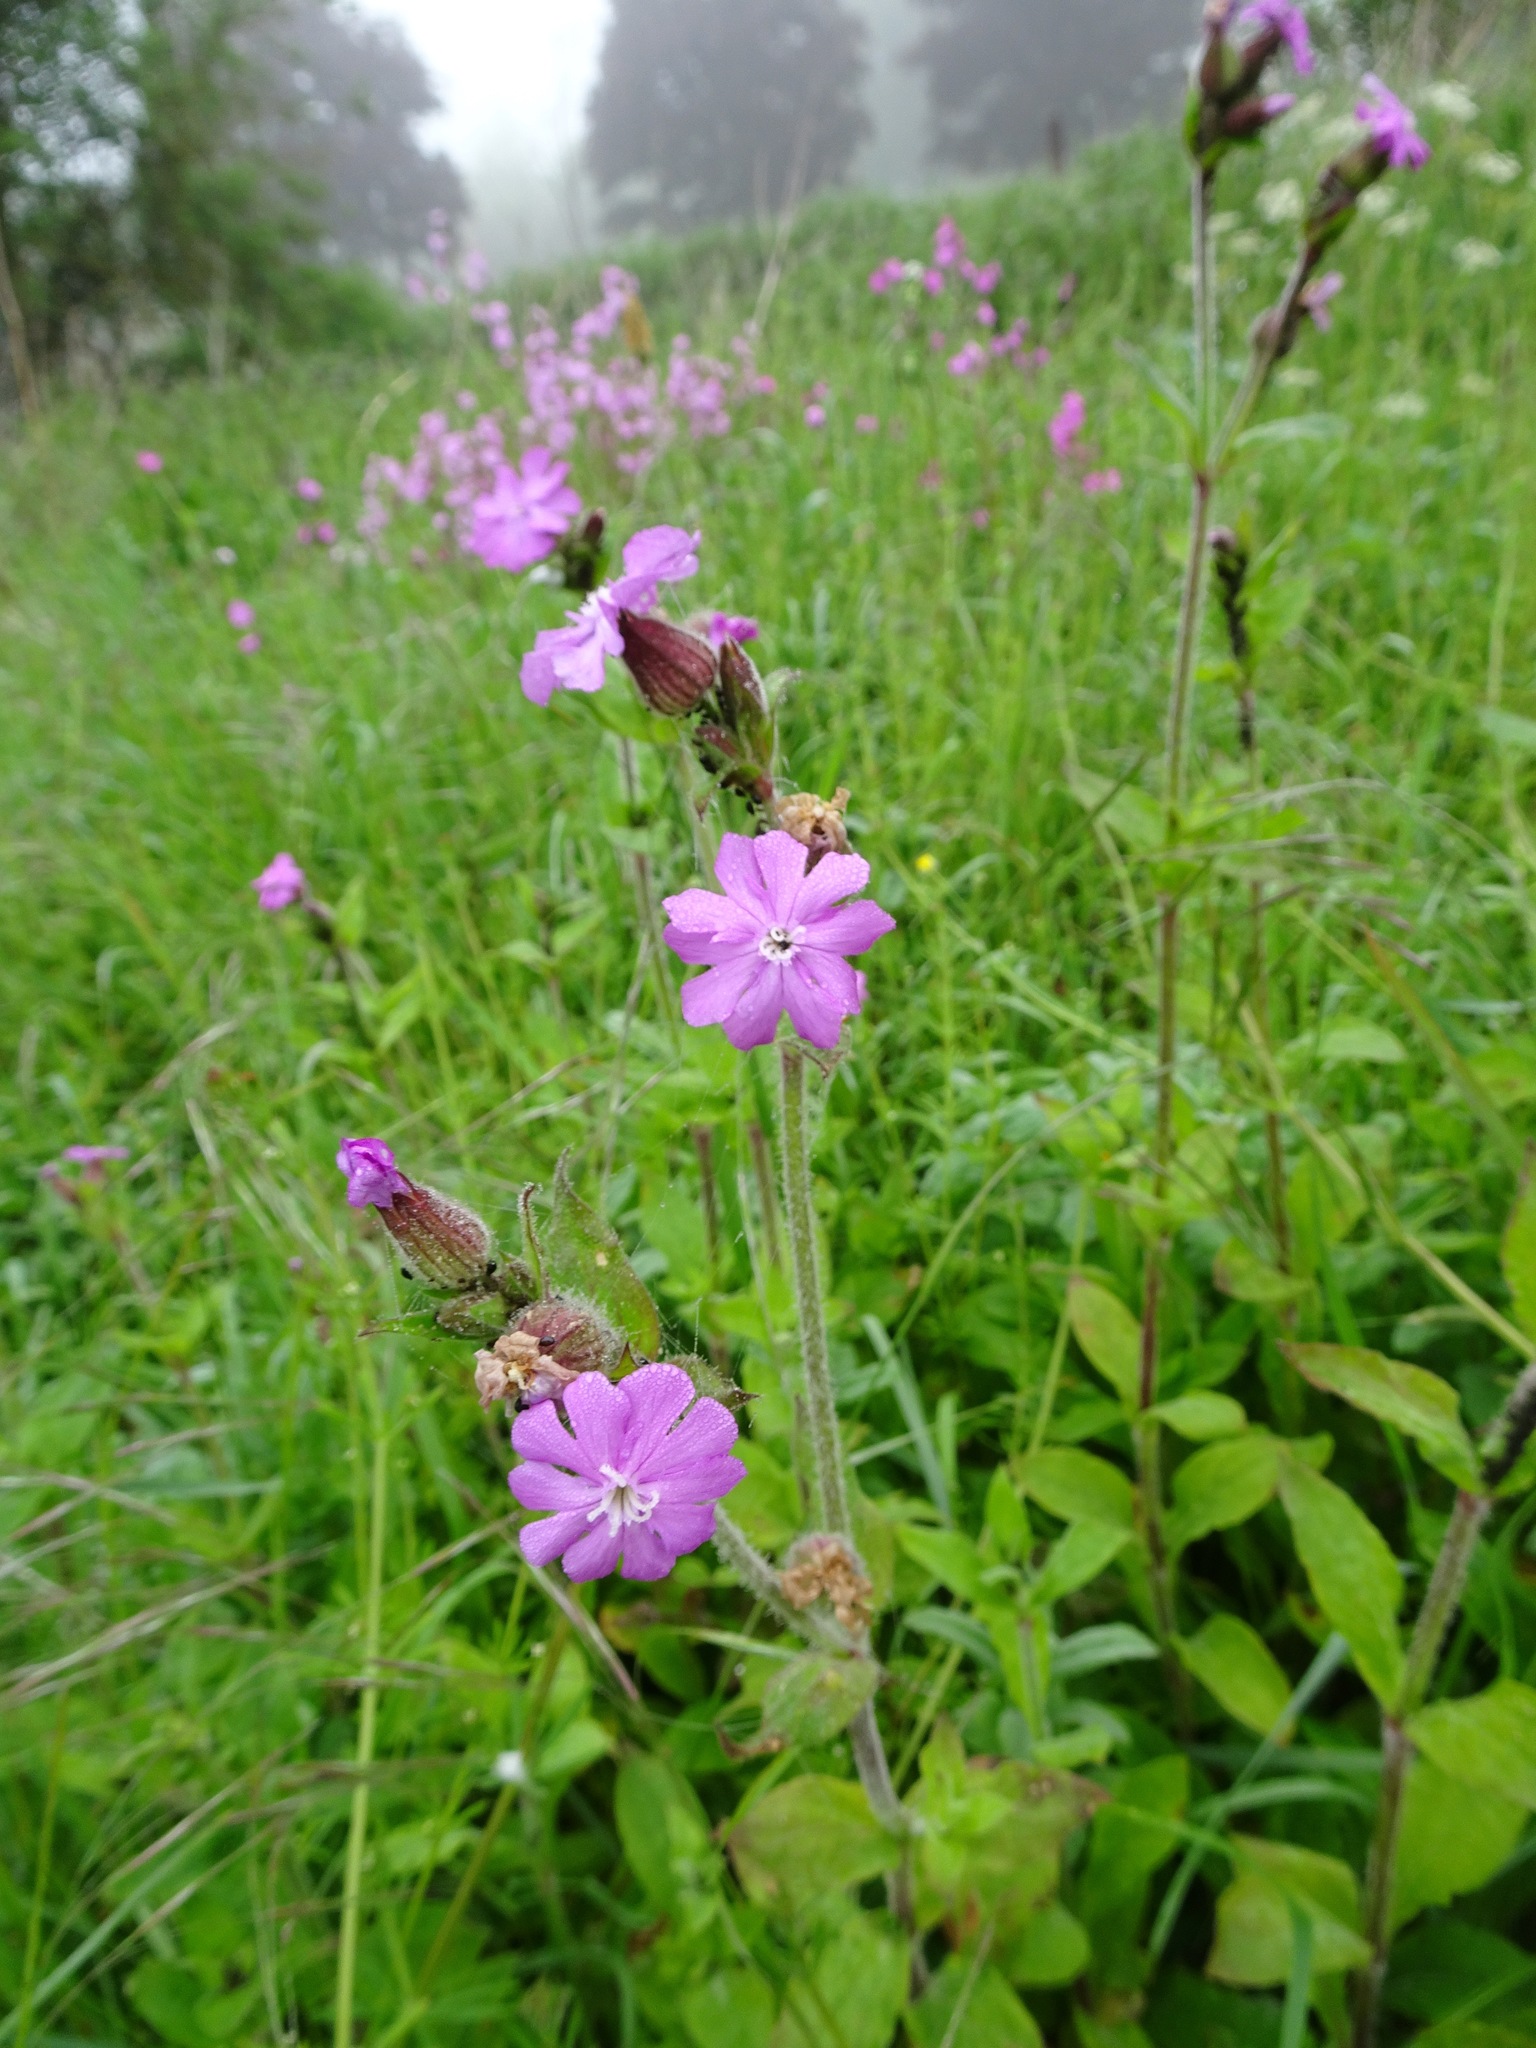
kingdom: Plantae
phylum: Tracheophyta
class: Magnoliopsida
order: Caryophyllales
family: Caryophyllaceae
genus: Silene
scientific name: Silene dioica
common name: Red campion
